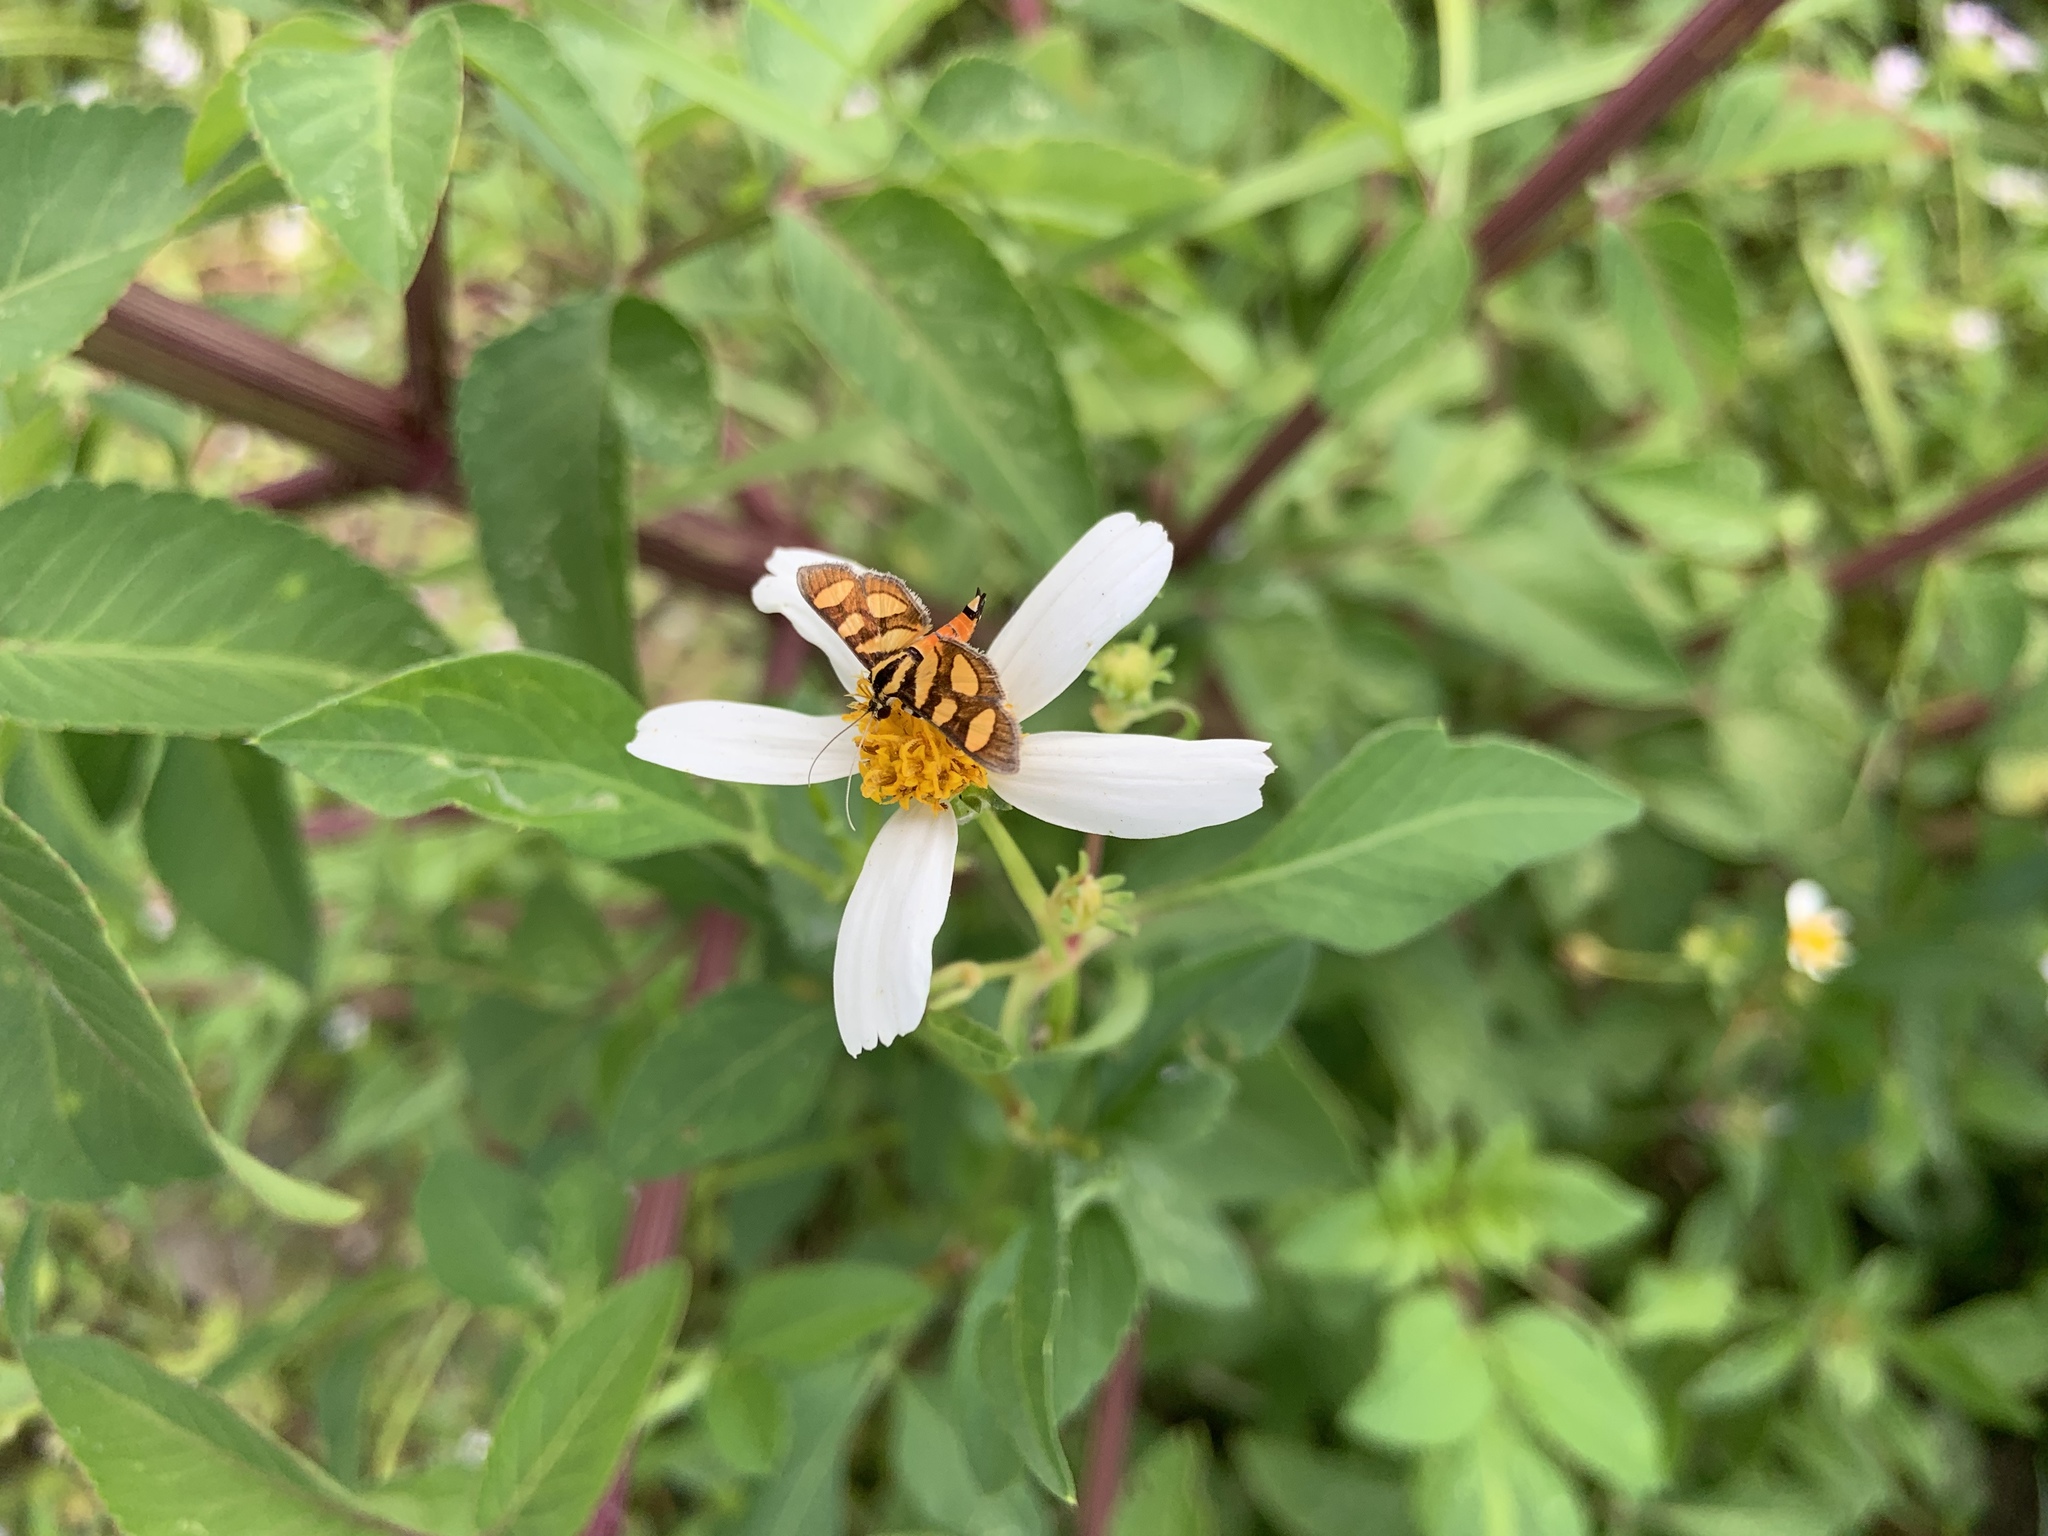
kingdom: Animalia
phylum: Arthropoda
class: Insecta
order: Lepidoptera
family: Crambidae
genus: Syngamia
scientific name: Syngamia florella
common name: Orange-spotted flower moth
